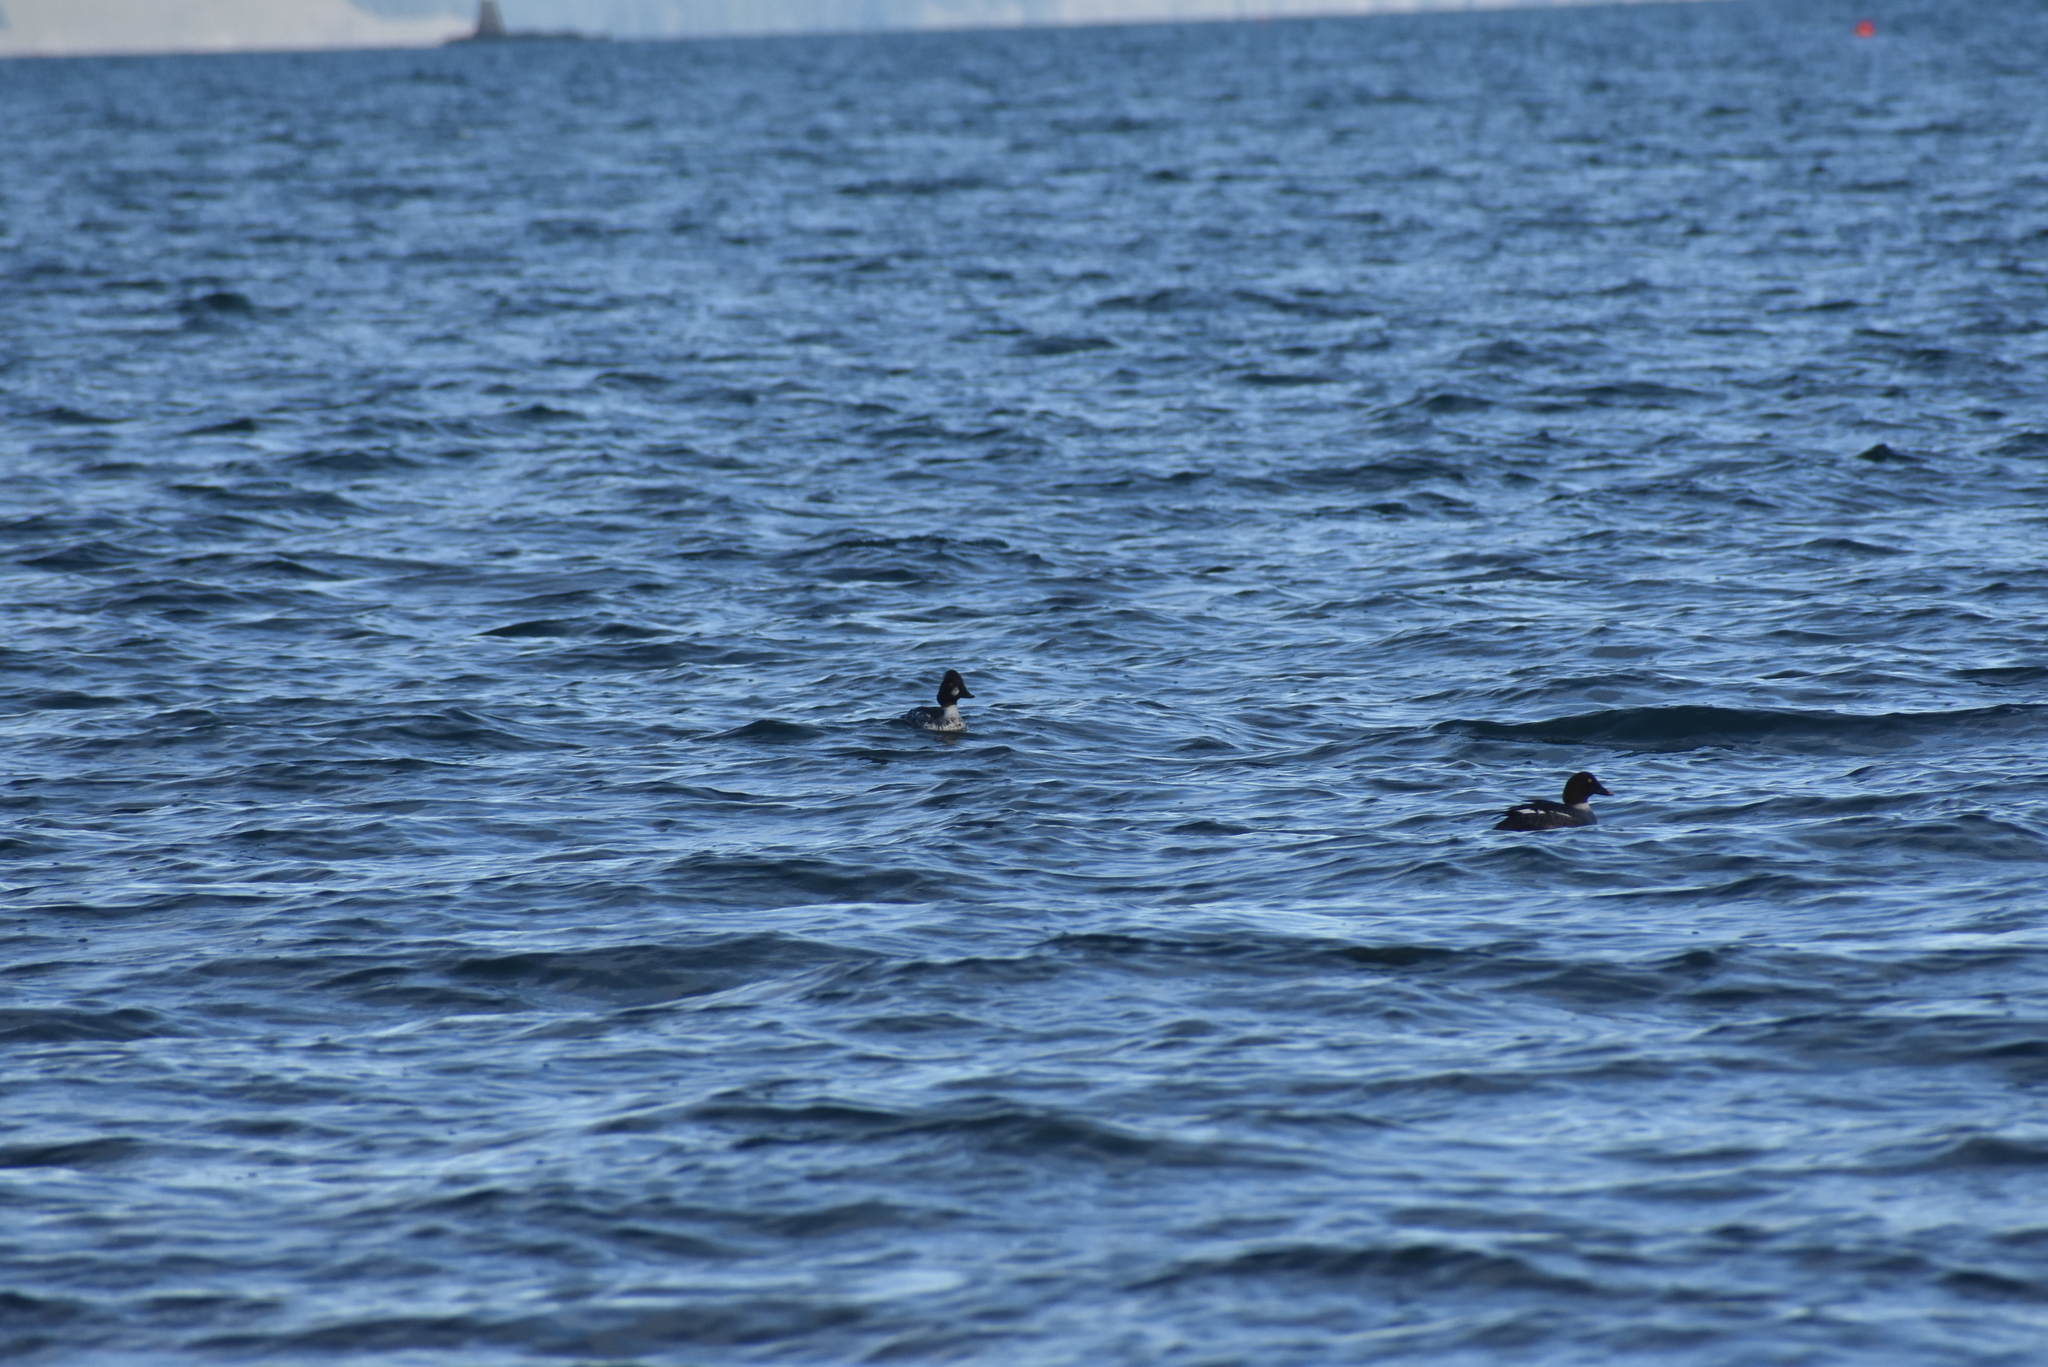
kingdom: Animalia
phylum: Chordata
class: Aves
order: Anseriformes
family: Anatidae
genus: Bucephala
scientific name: Bucephala clangula
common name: Common goldeneye
